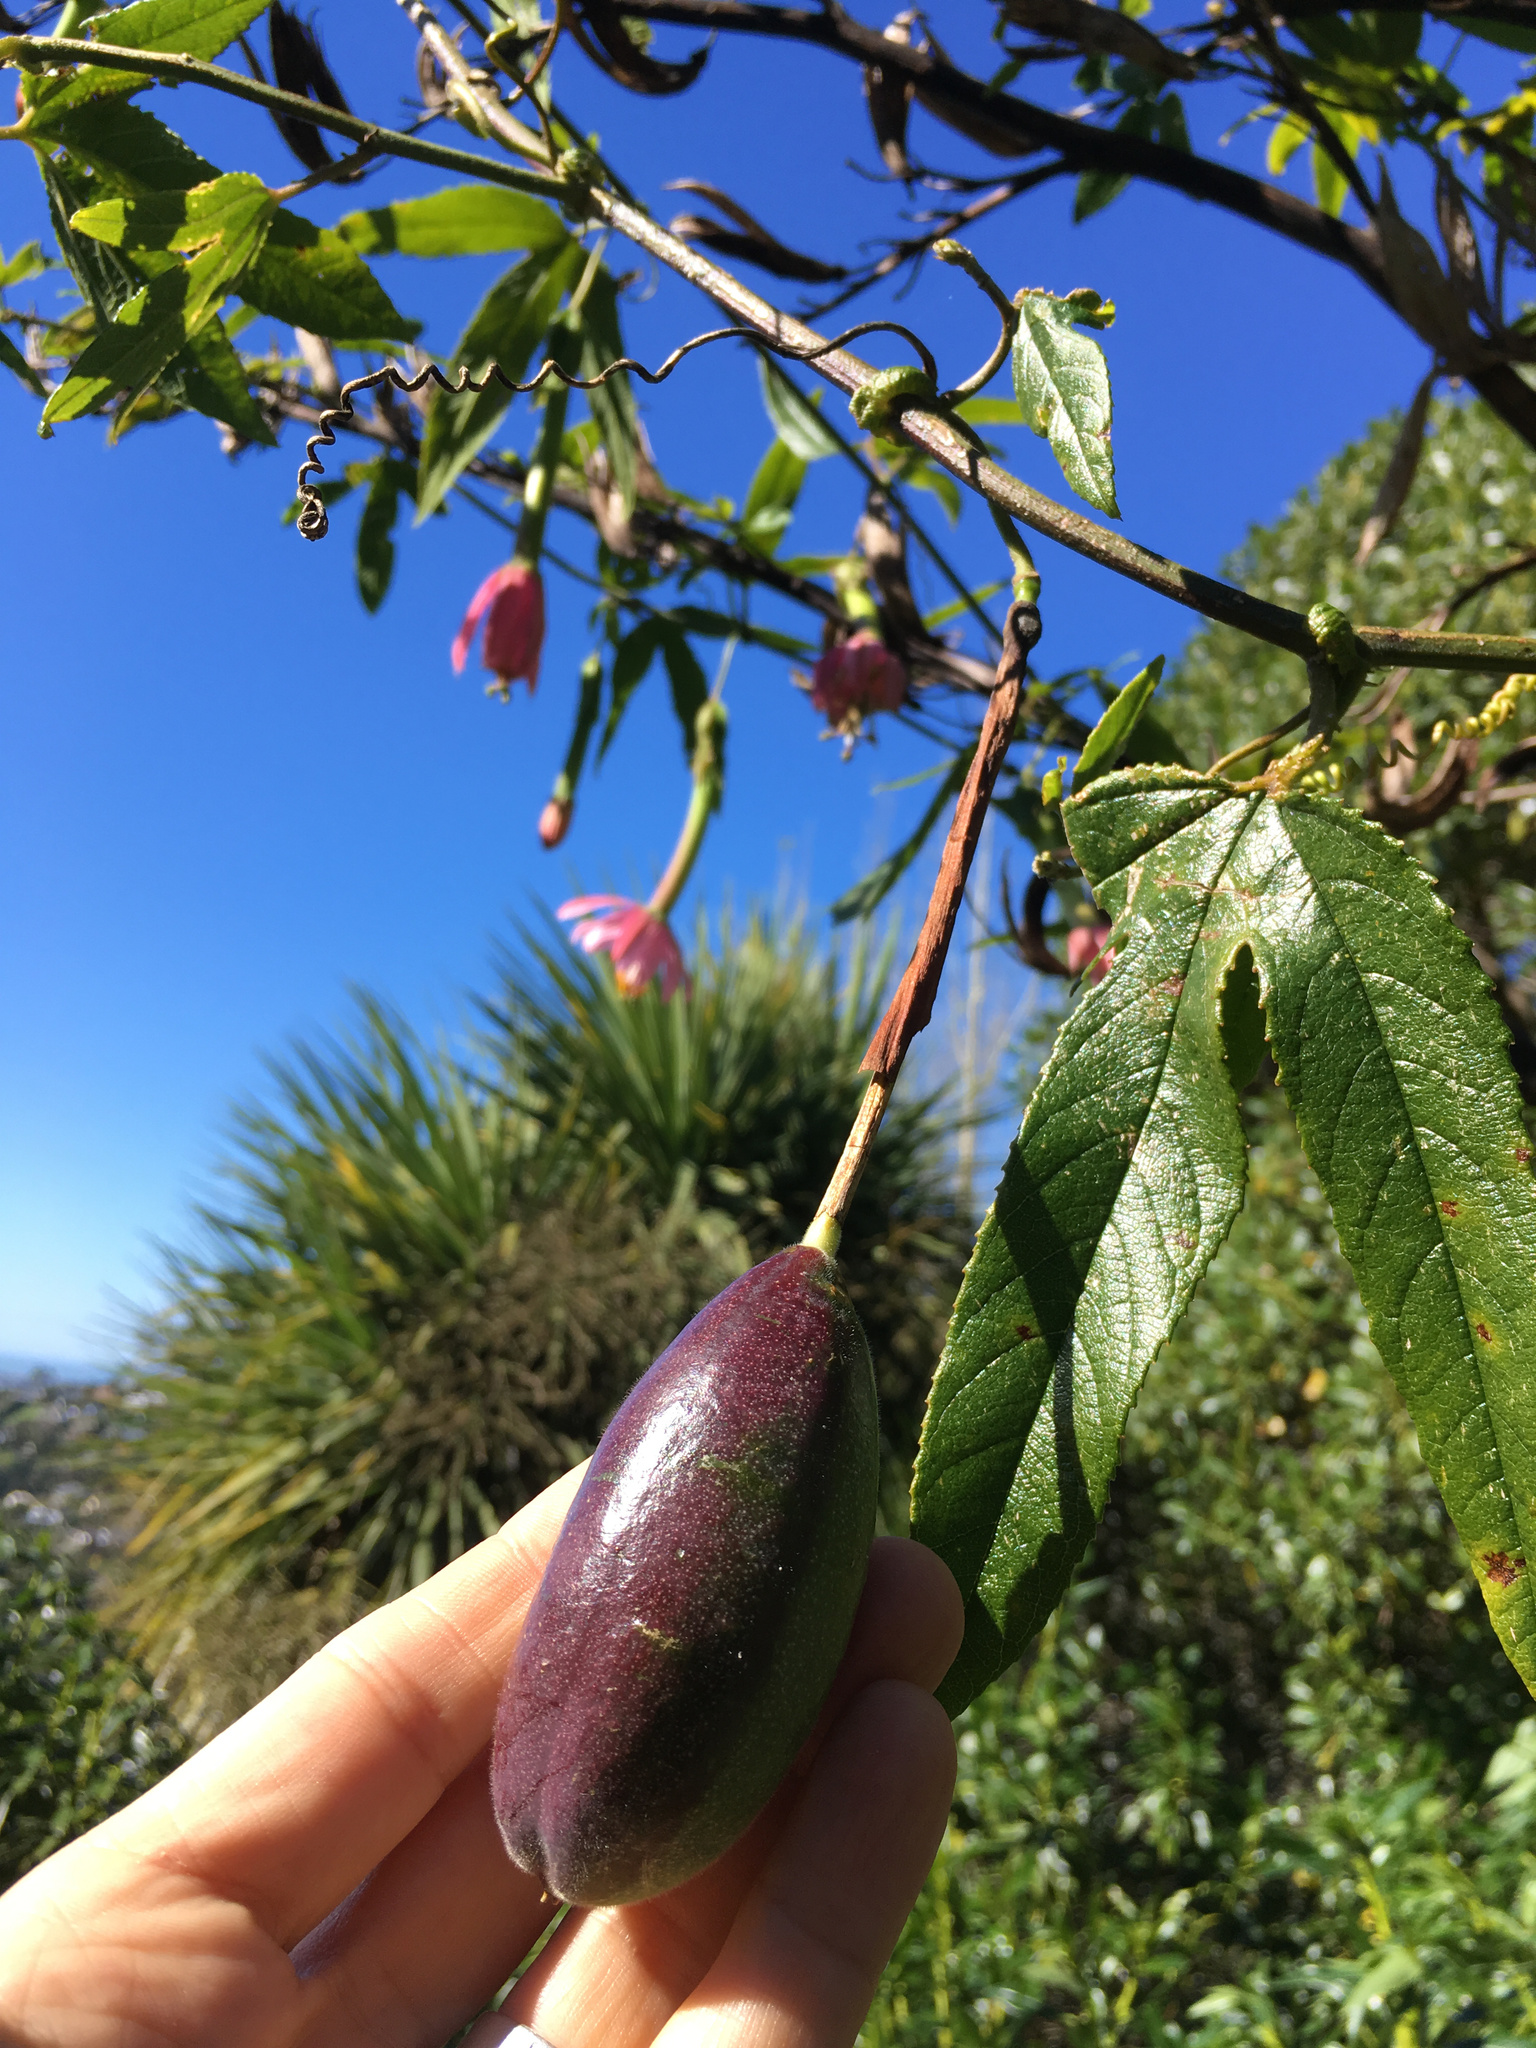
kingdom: Plantae
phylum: Tracheophyta
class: Magnoliopsida
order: Malpighiales
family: Passifloraceae
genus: Passiflora
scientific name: Passiflora tripartita
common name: Banana poka
